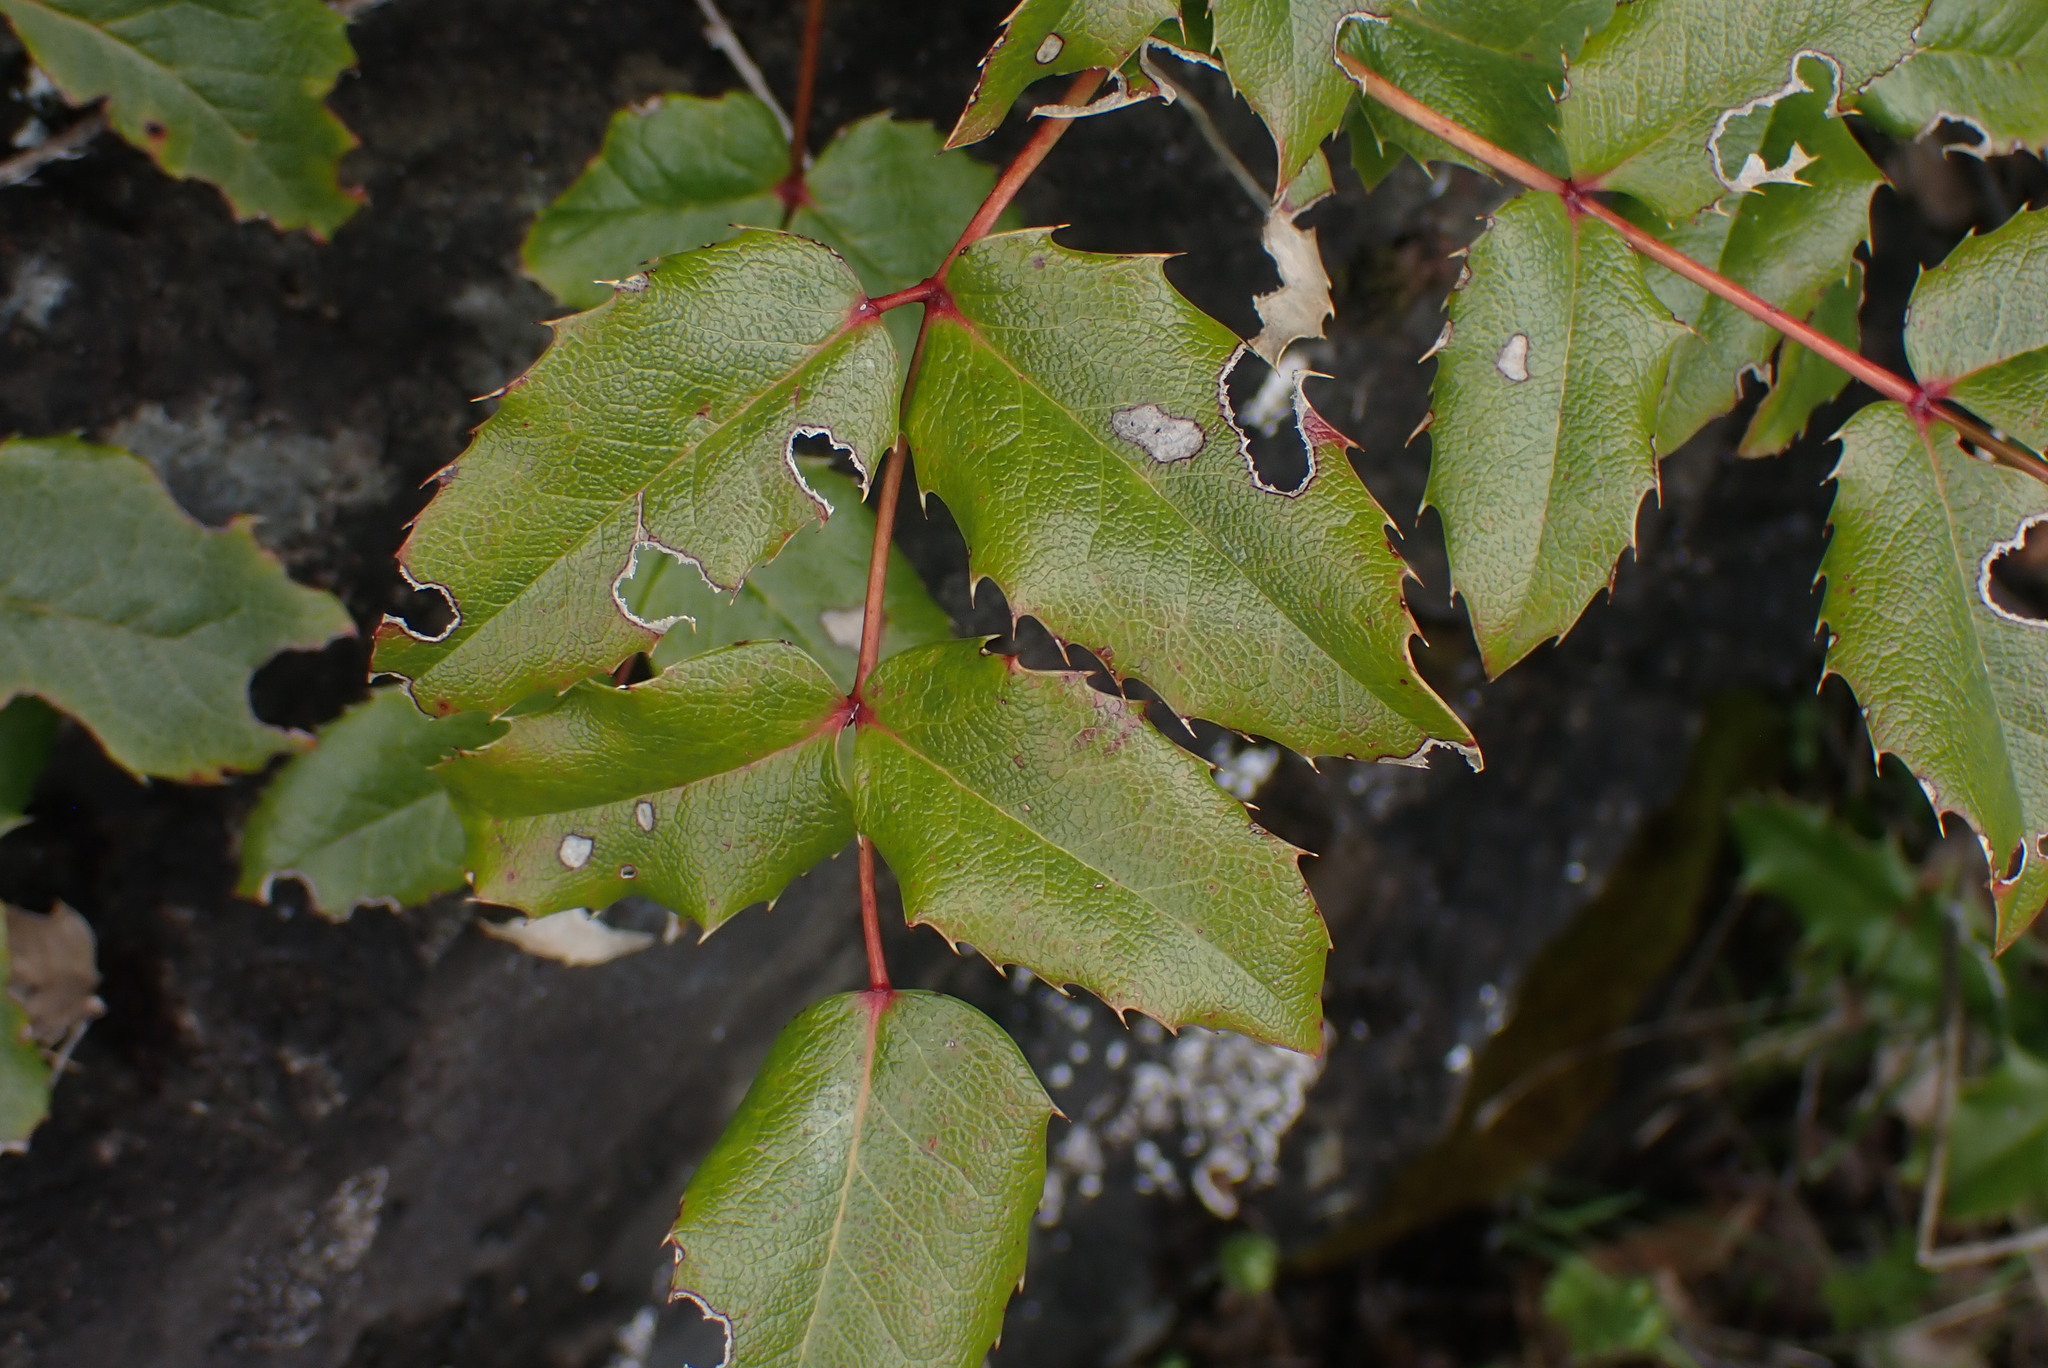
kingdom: Plantae
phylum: Tracheophyta
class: Magnoliopsida
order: Ranunculales
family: Berberidaceae
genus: Mahonia
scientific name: Mahonia aquifolium
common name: Oregon-grape
